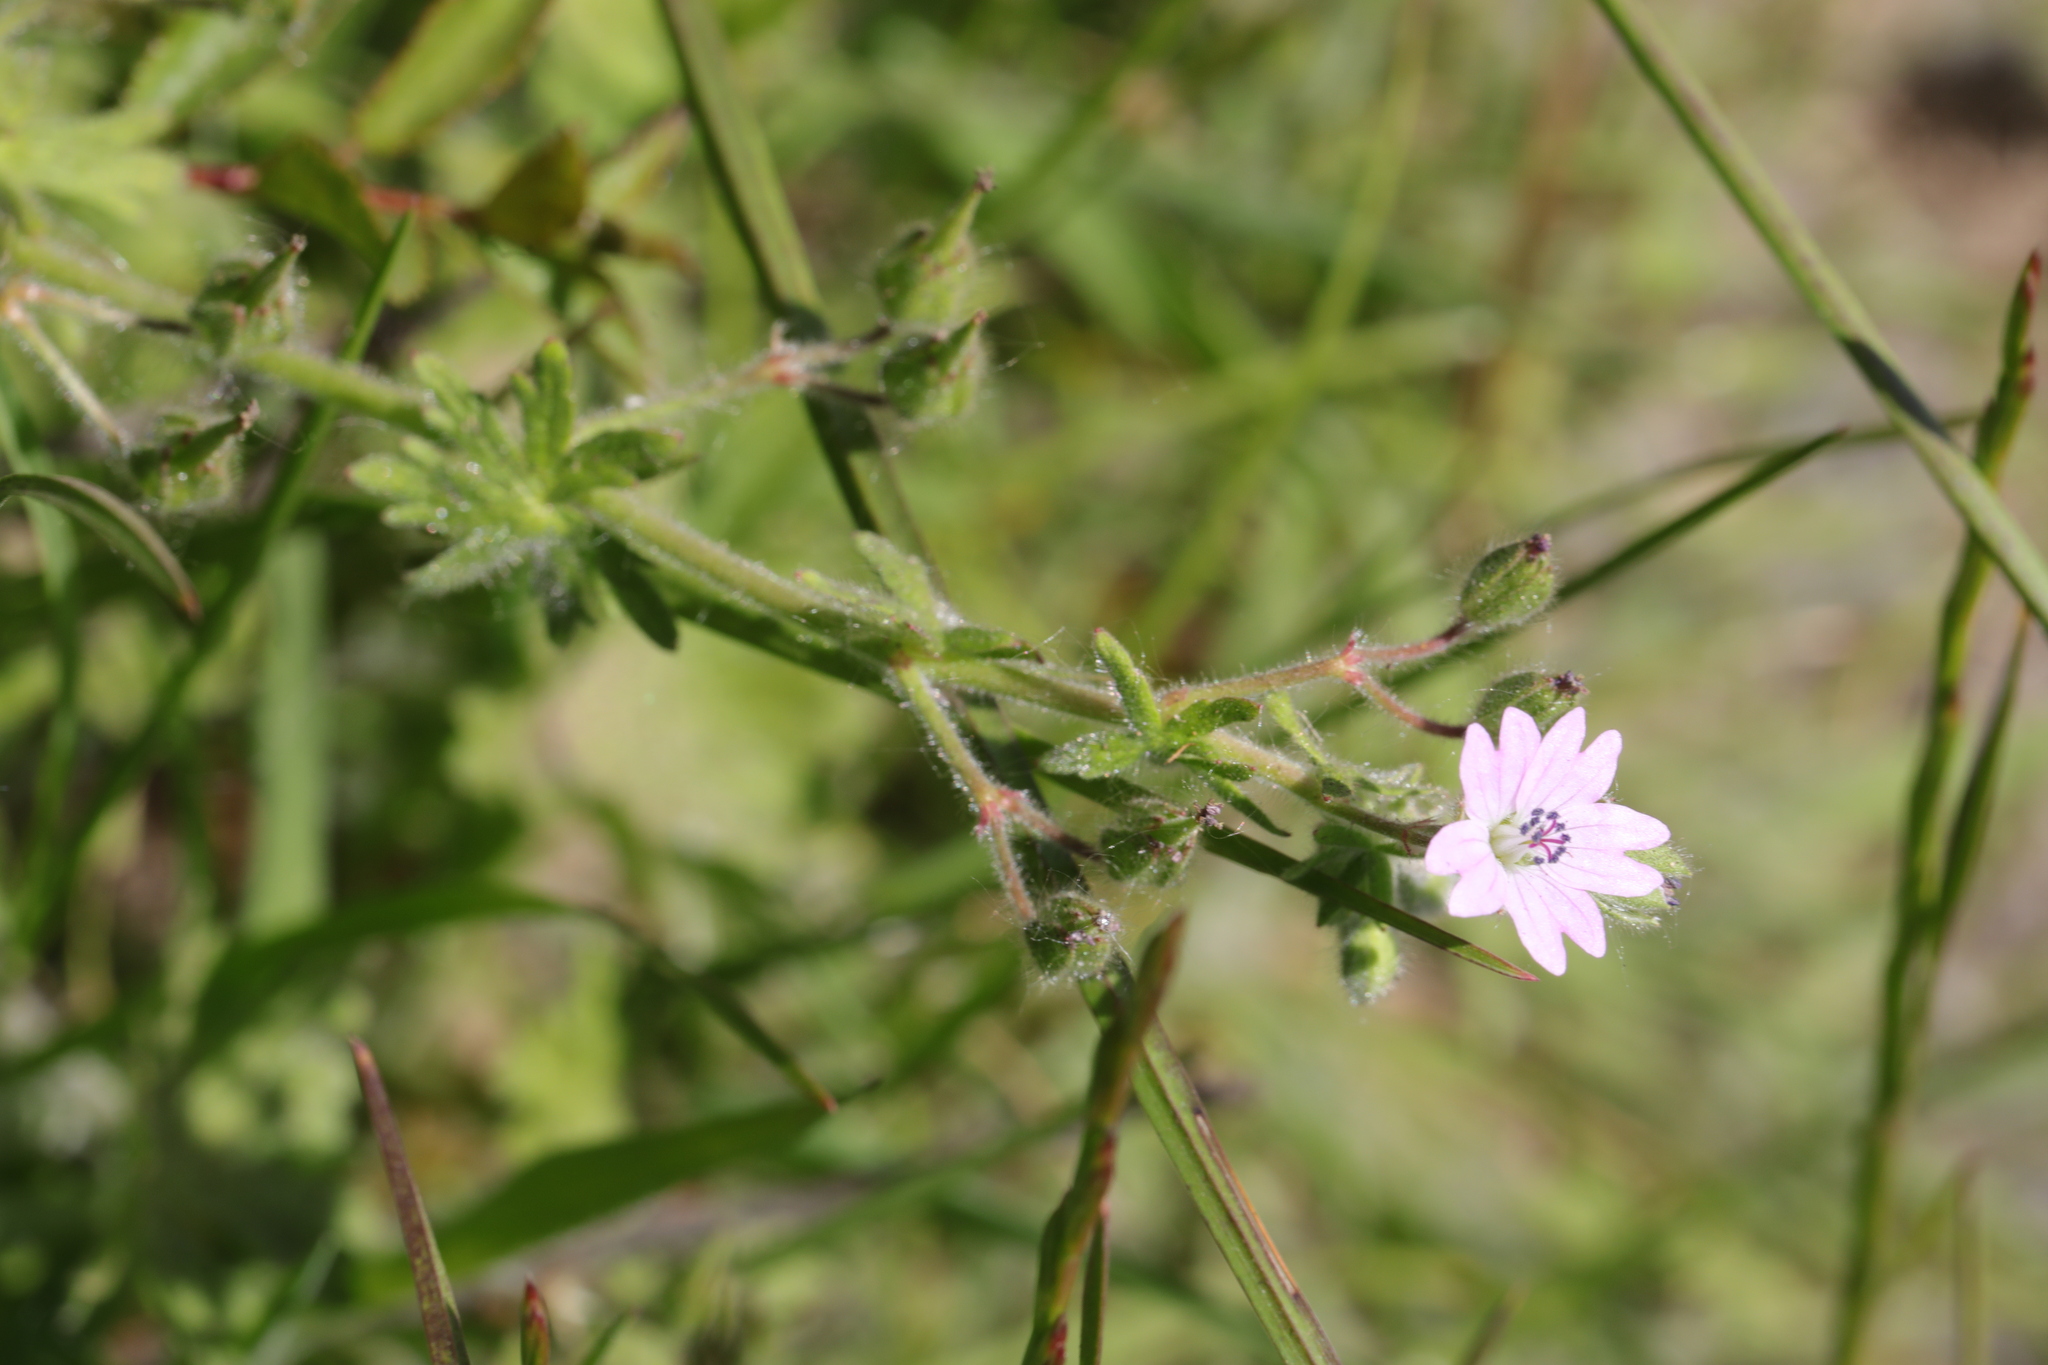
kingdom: Plantae
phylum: Tracheophyta
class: Magnoliopsida
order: Geraniales
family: Geraniaceae
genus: Geranium
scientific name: Geranium molle
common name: Dove's-foot crane's-bill
